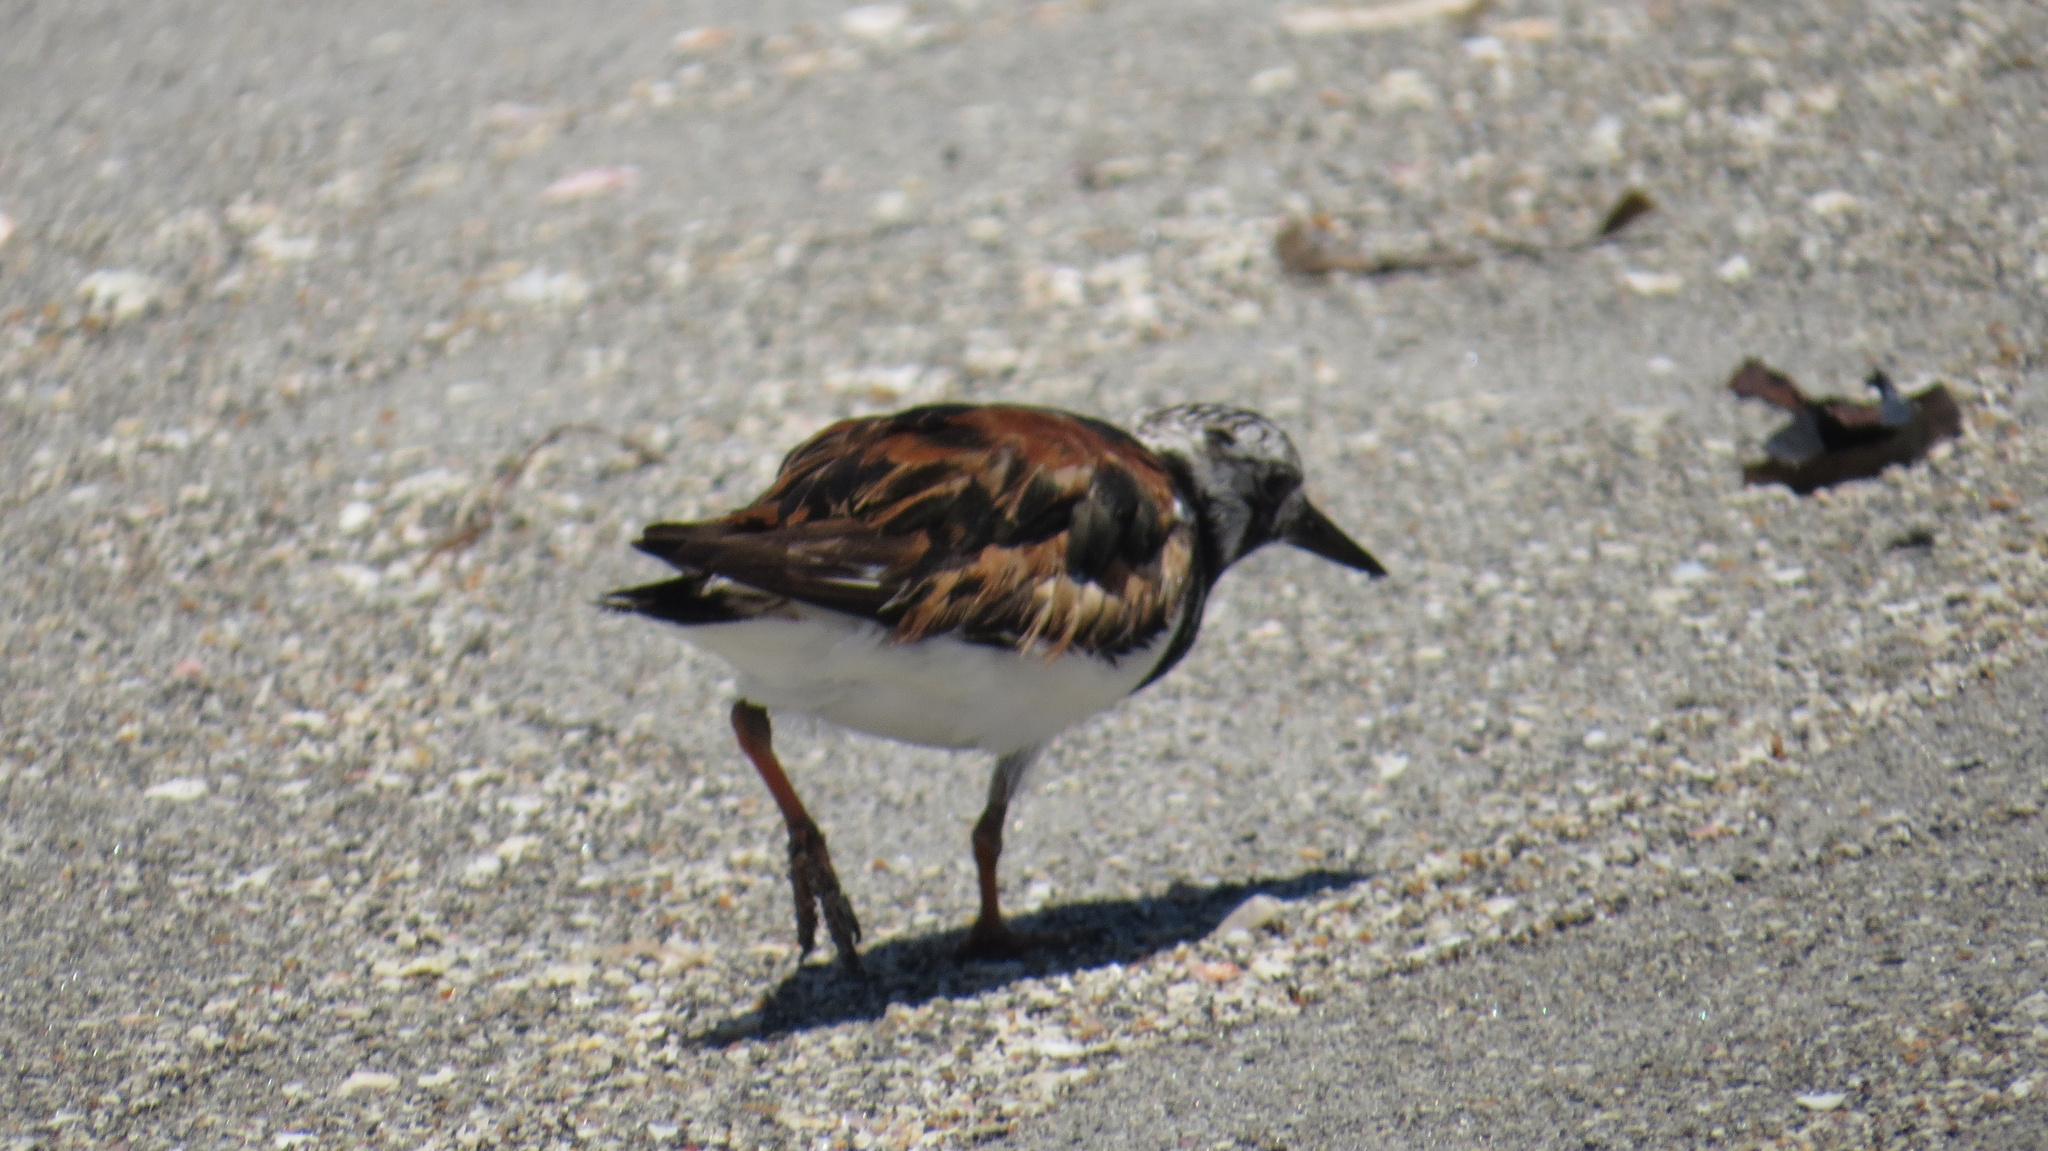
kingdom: Animalia
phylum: Chordata
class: Aves
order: Charadriiformes
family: Scolopacidae
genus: Arenaria
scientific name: Arenaria interpres
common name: Ruddy turnstone
